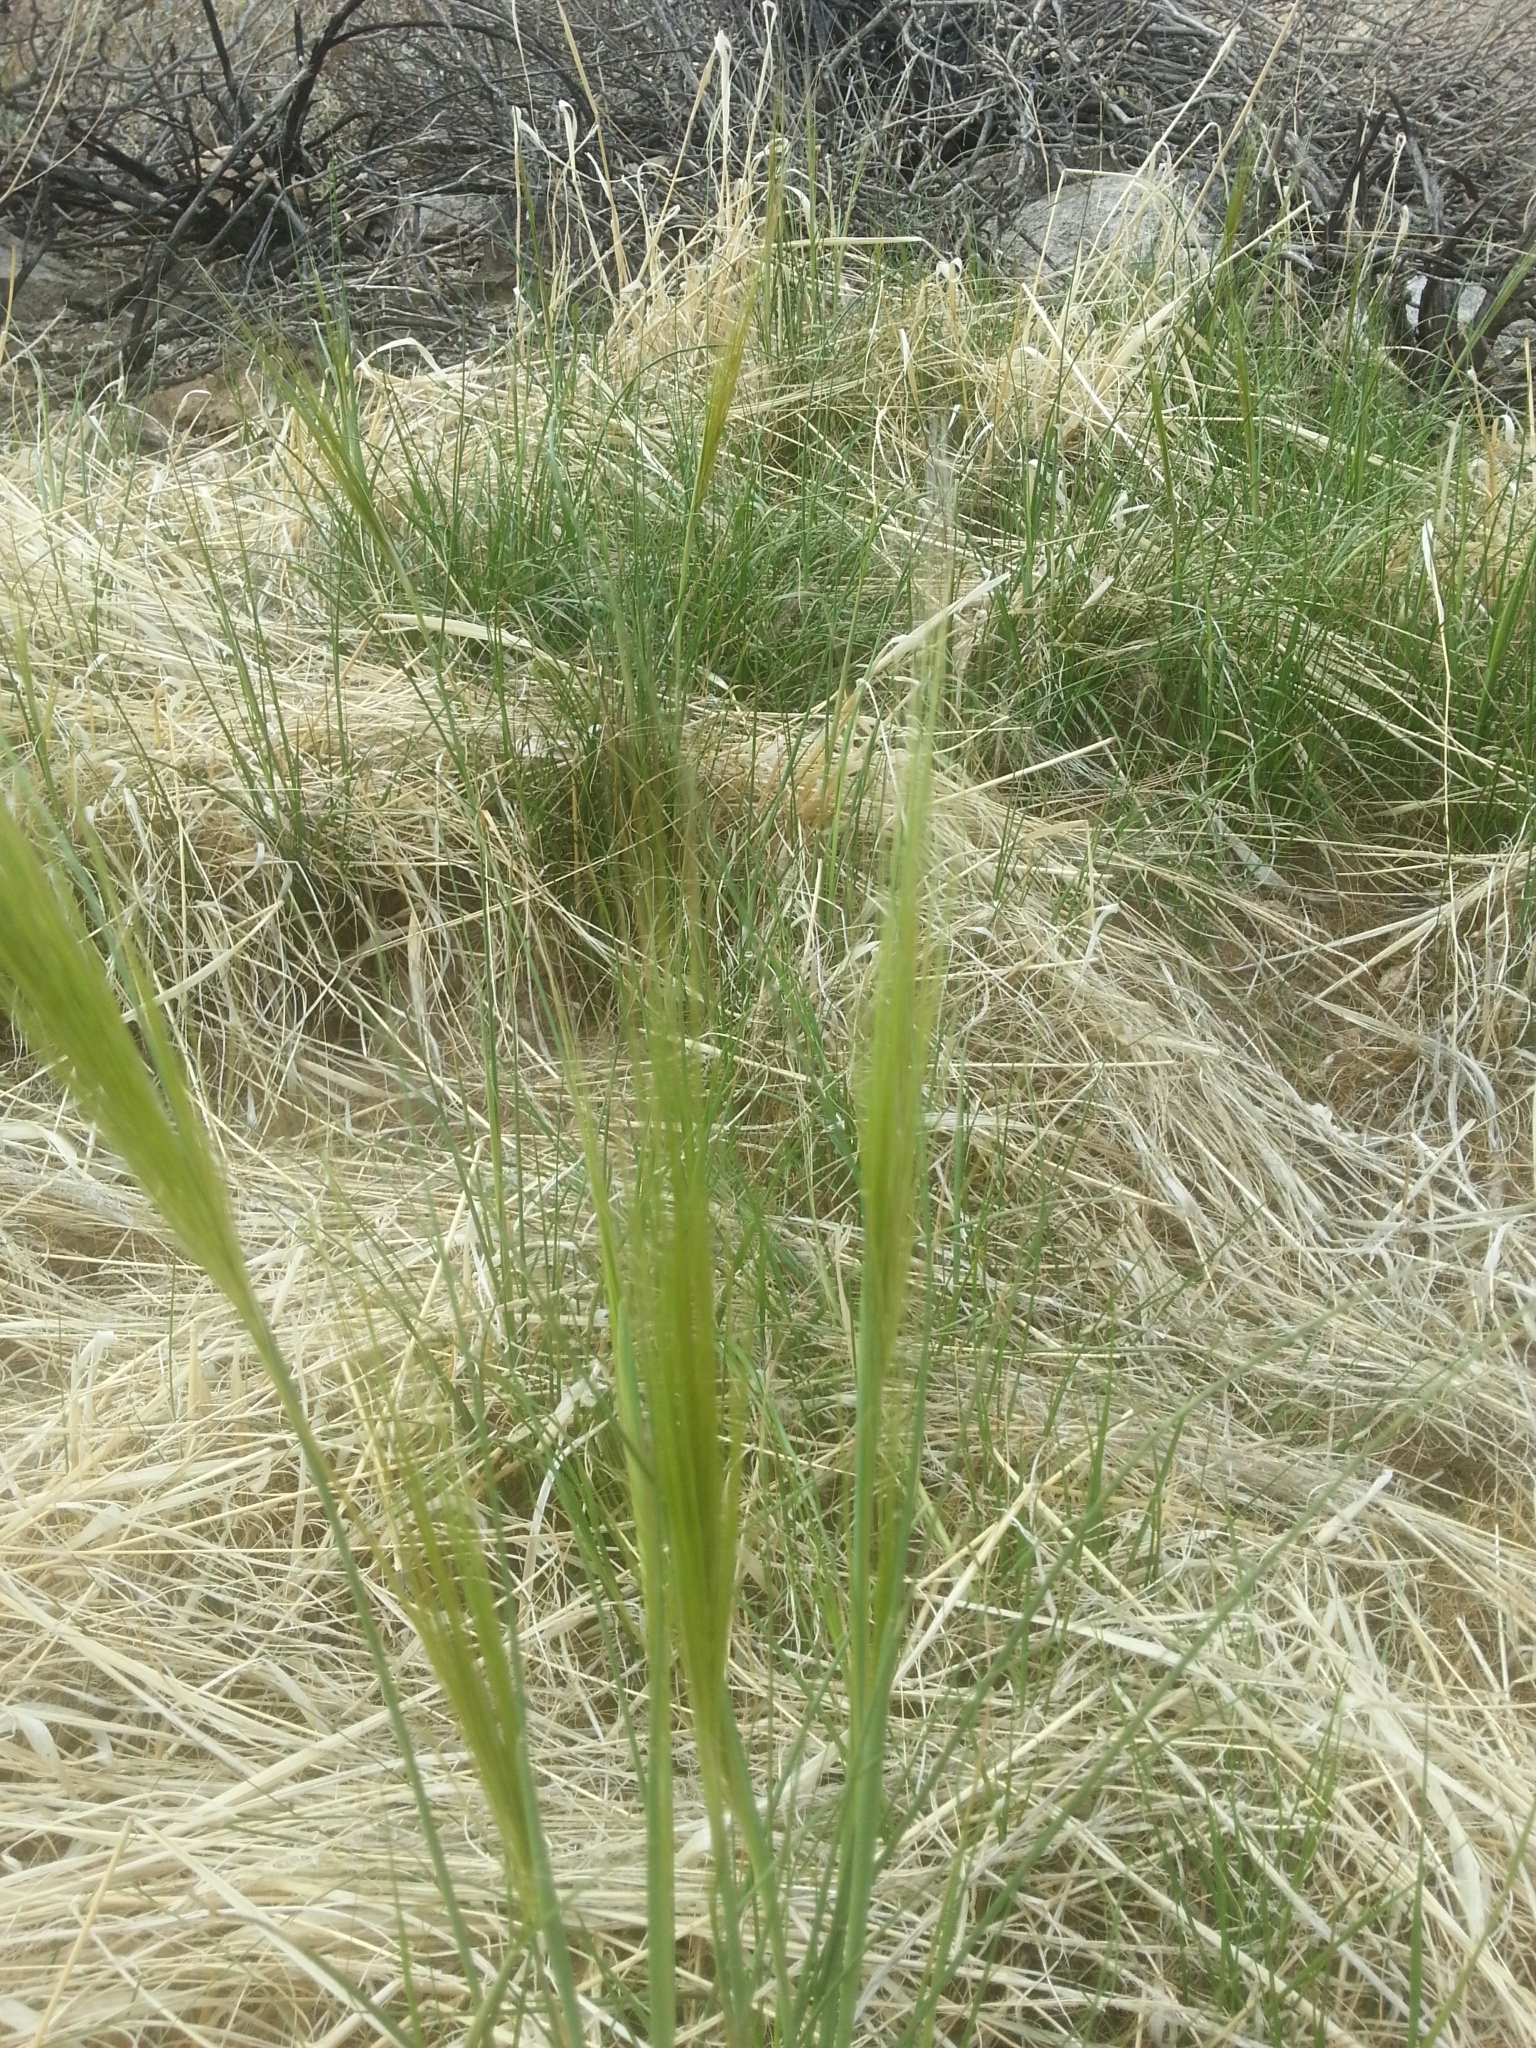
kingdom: Plantae
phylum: Tracheophyta
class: Liliopsida
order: Poales
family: Poaceae
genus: Stipellula
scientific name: Stipellula capensis
